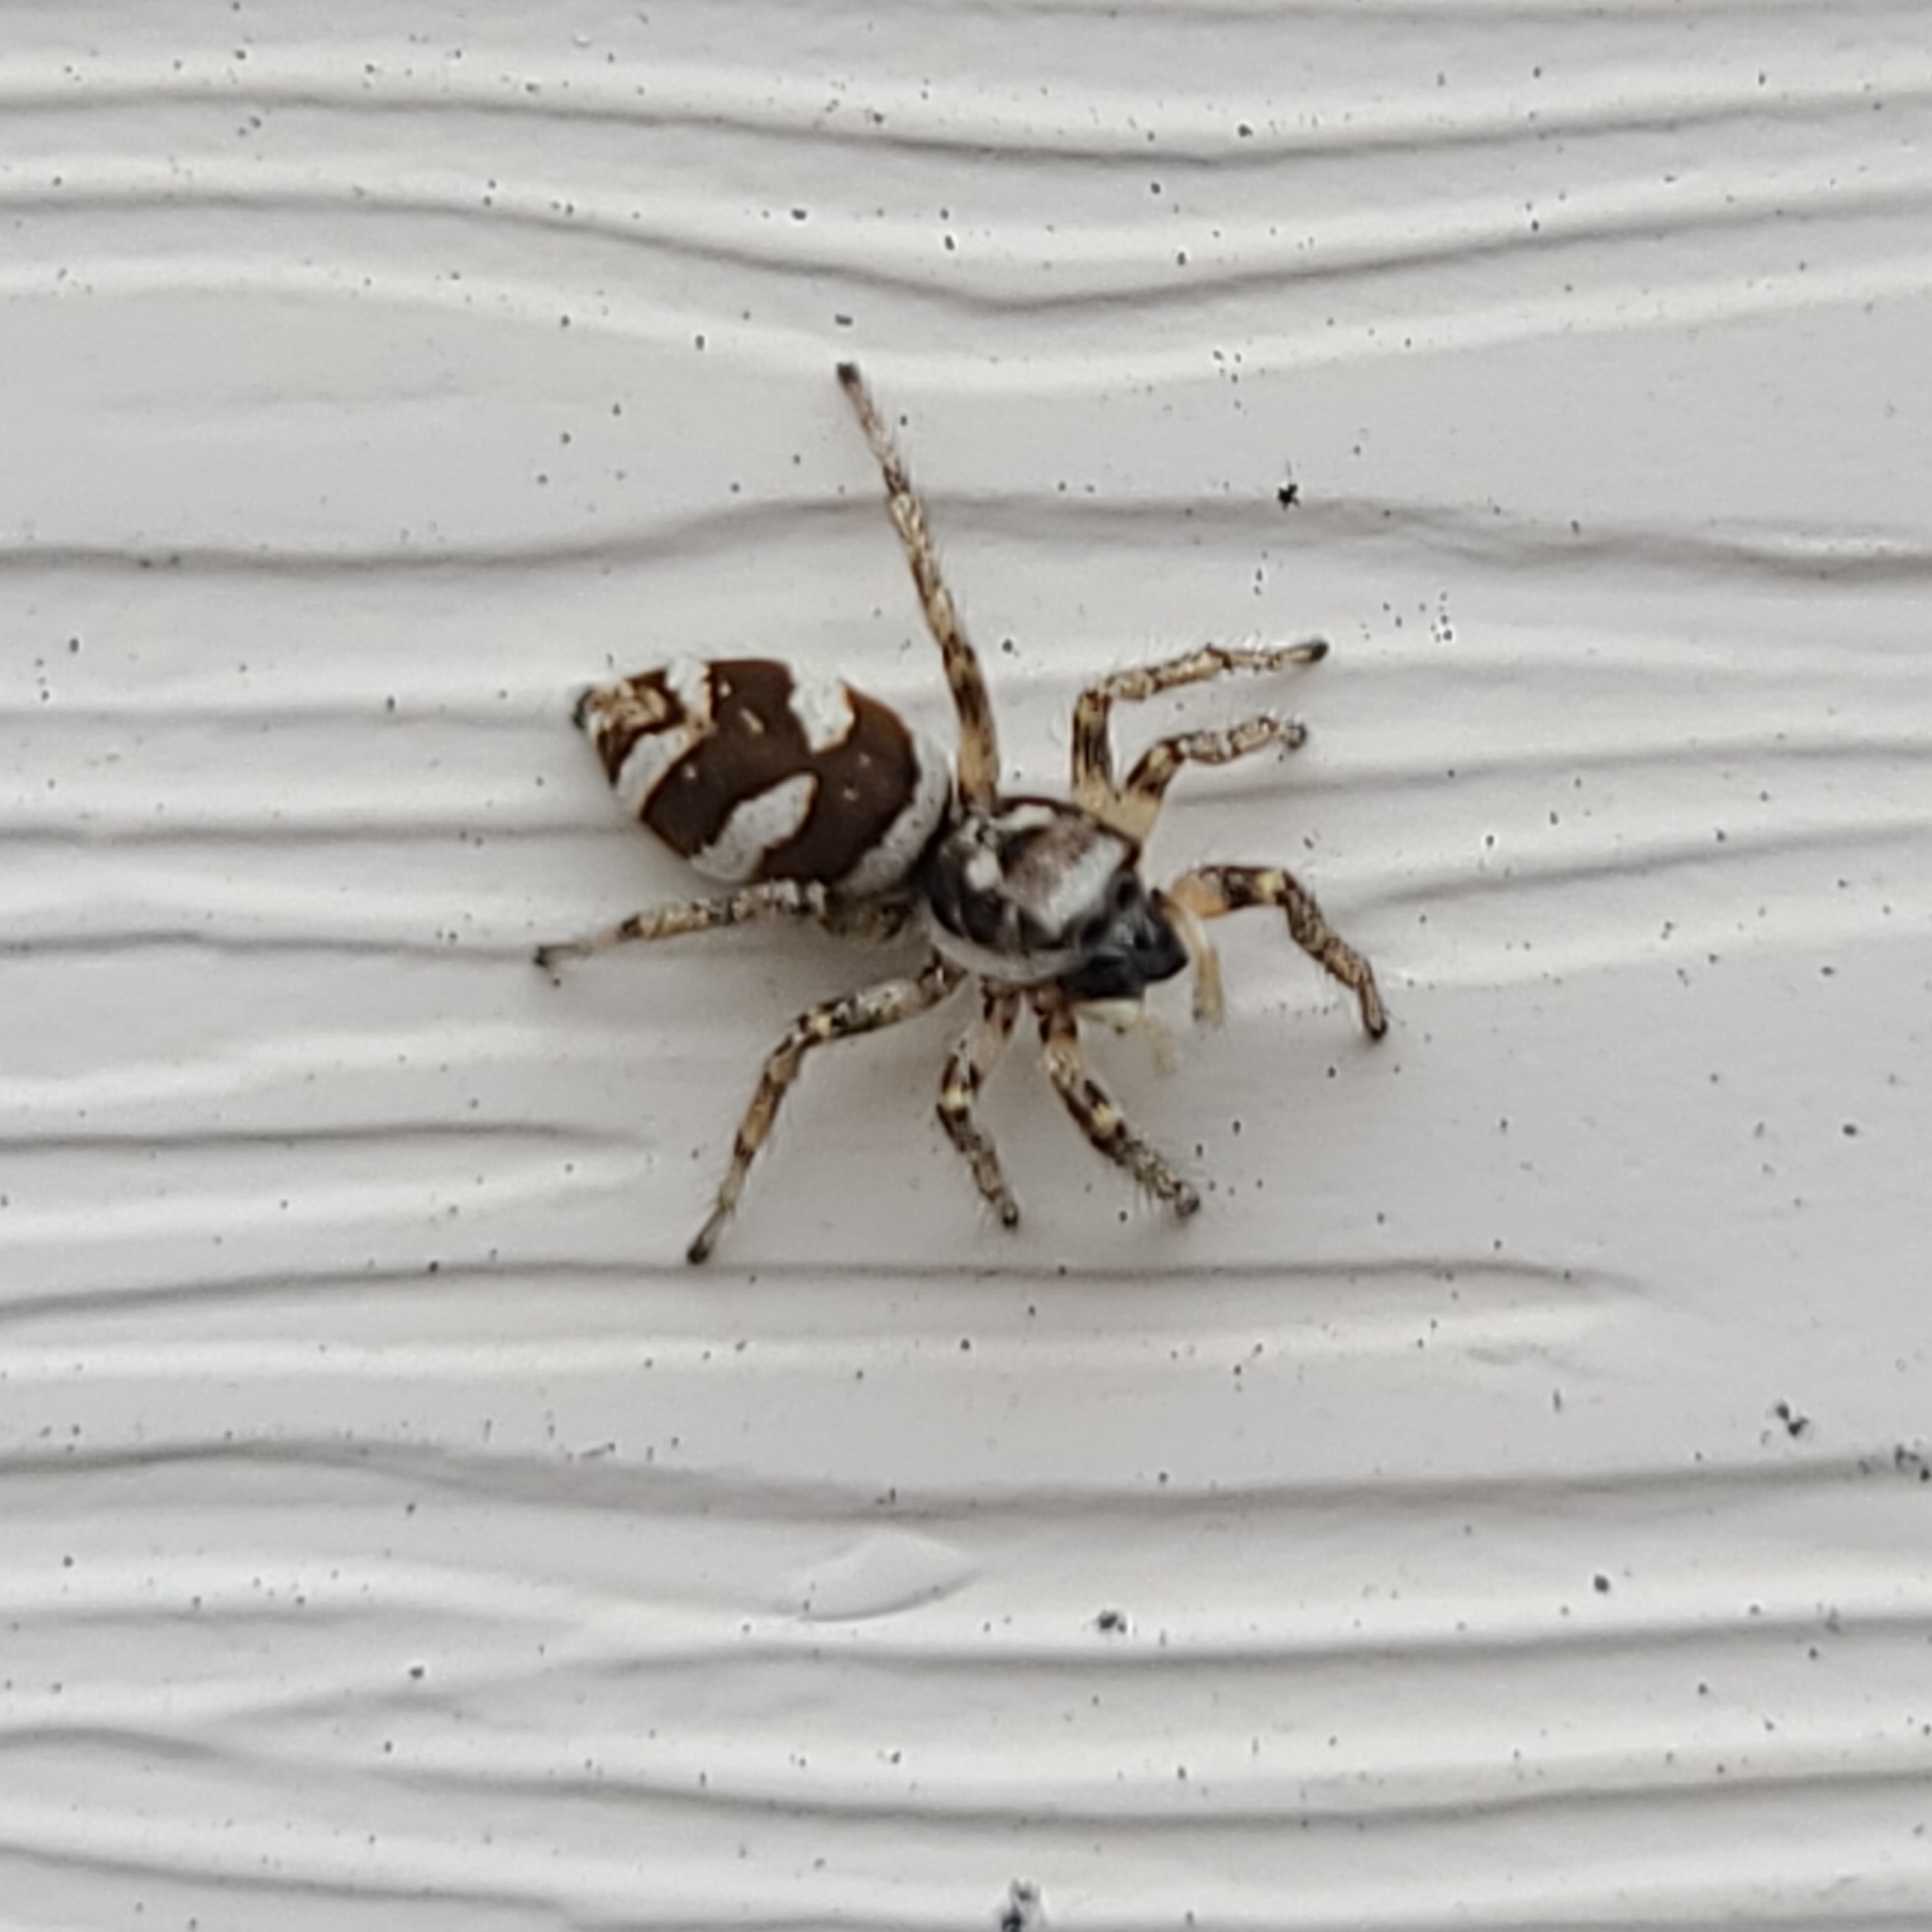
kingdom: Animalia
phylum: Arthropoda
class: Arachnida
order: Araneae
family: Salticidae
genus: Salticus
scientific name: Salticus scenicus
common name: Zebra jumper
